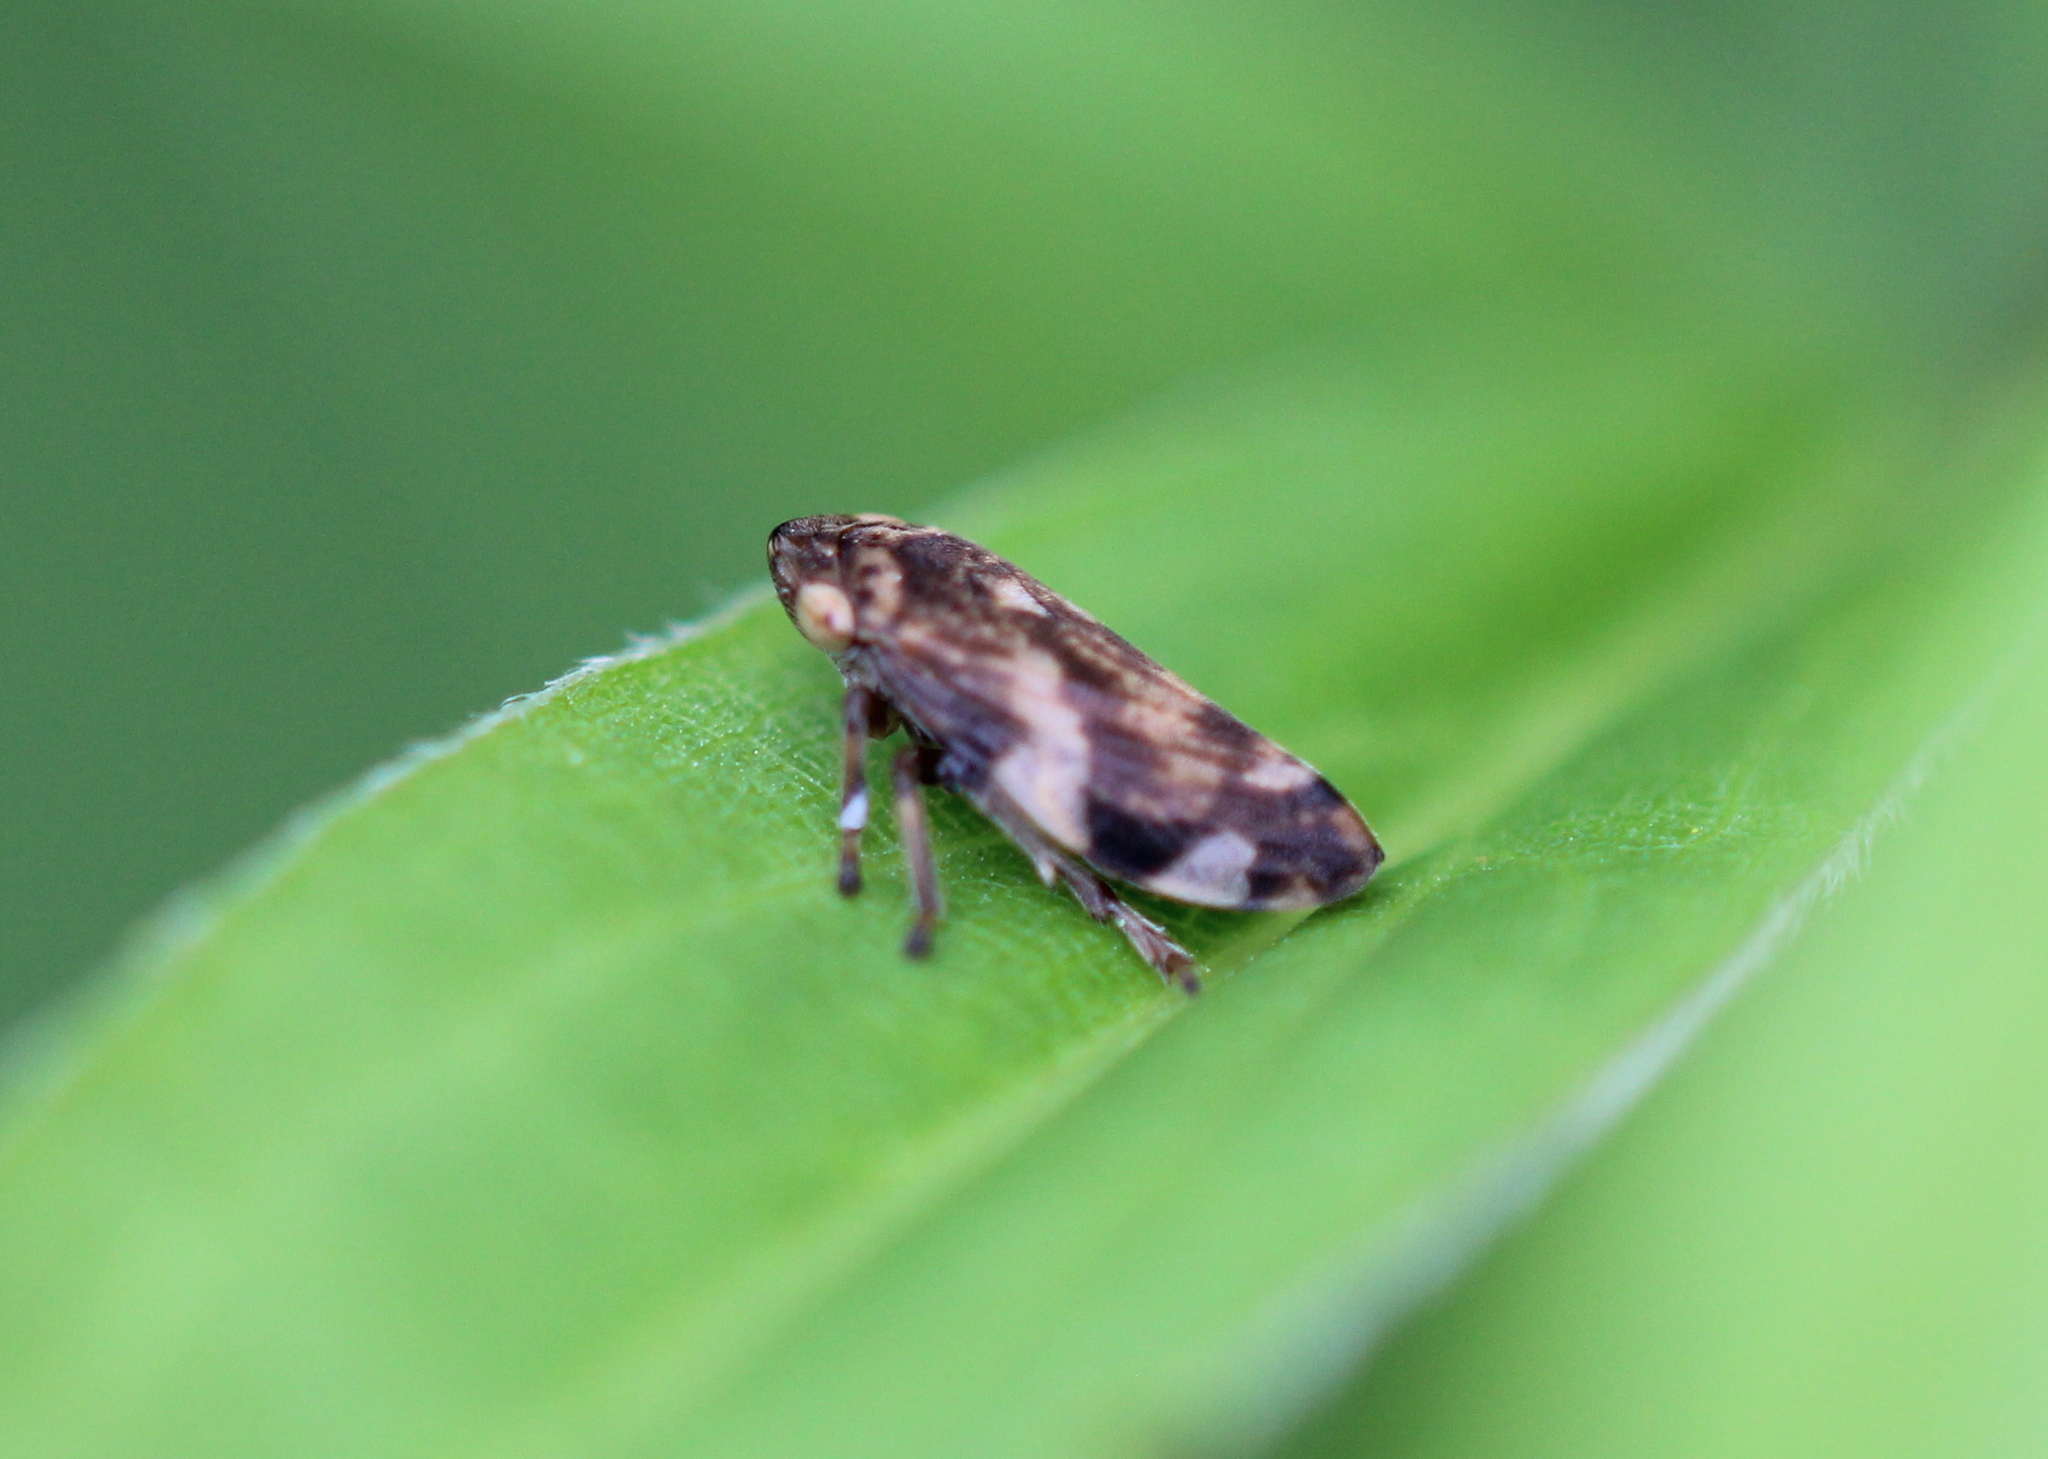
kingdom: Animalia
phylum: Arthropoda
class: Insecta
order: Hemiptera
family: Aphrophoridae
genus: Philaenus
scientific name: Philaenus spumarius
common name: Meadow spittlebug
